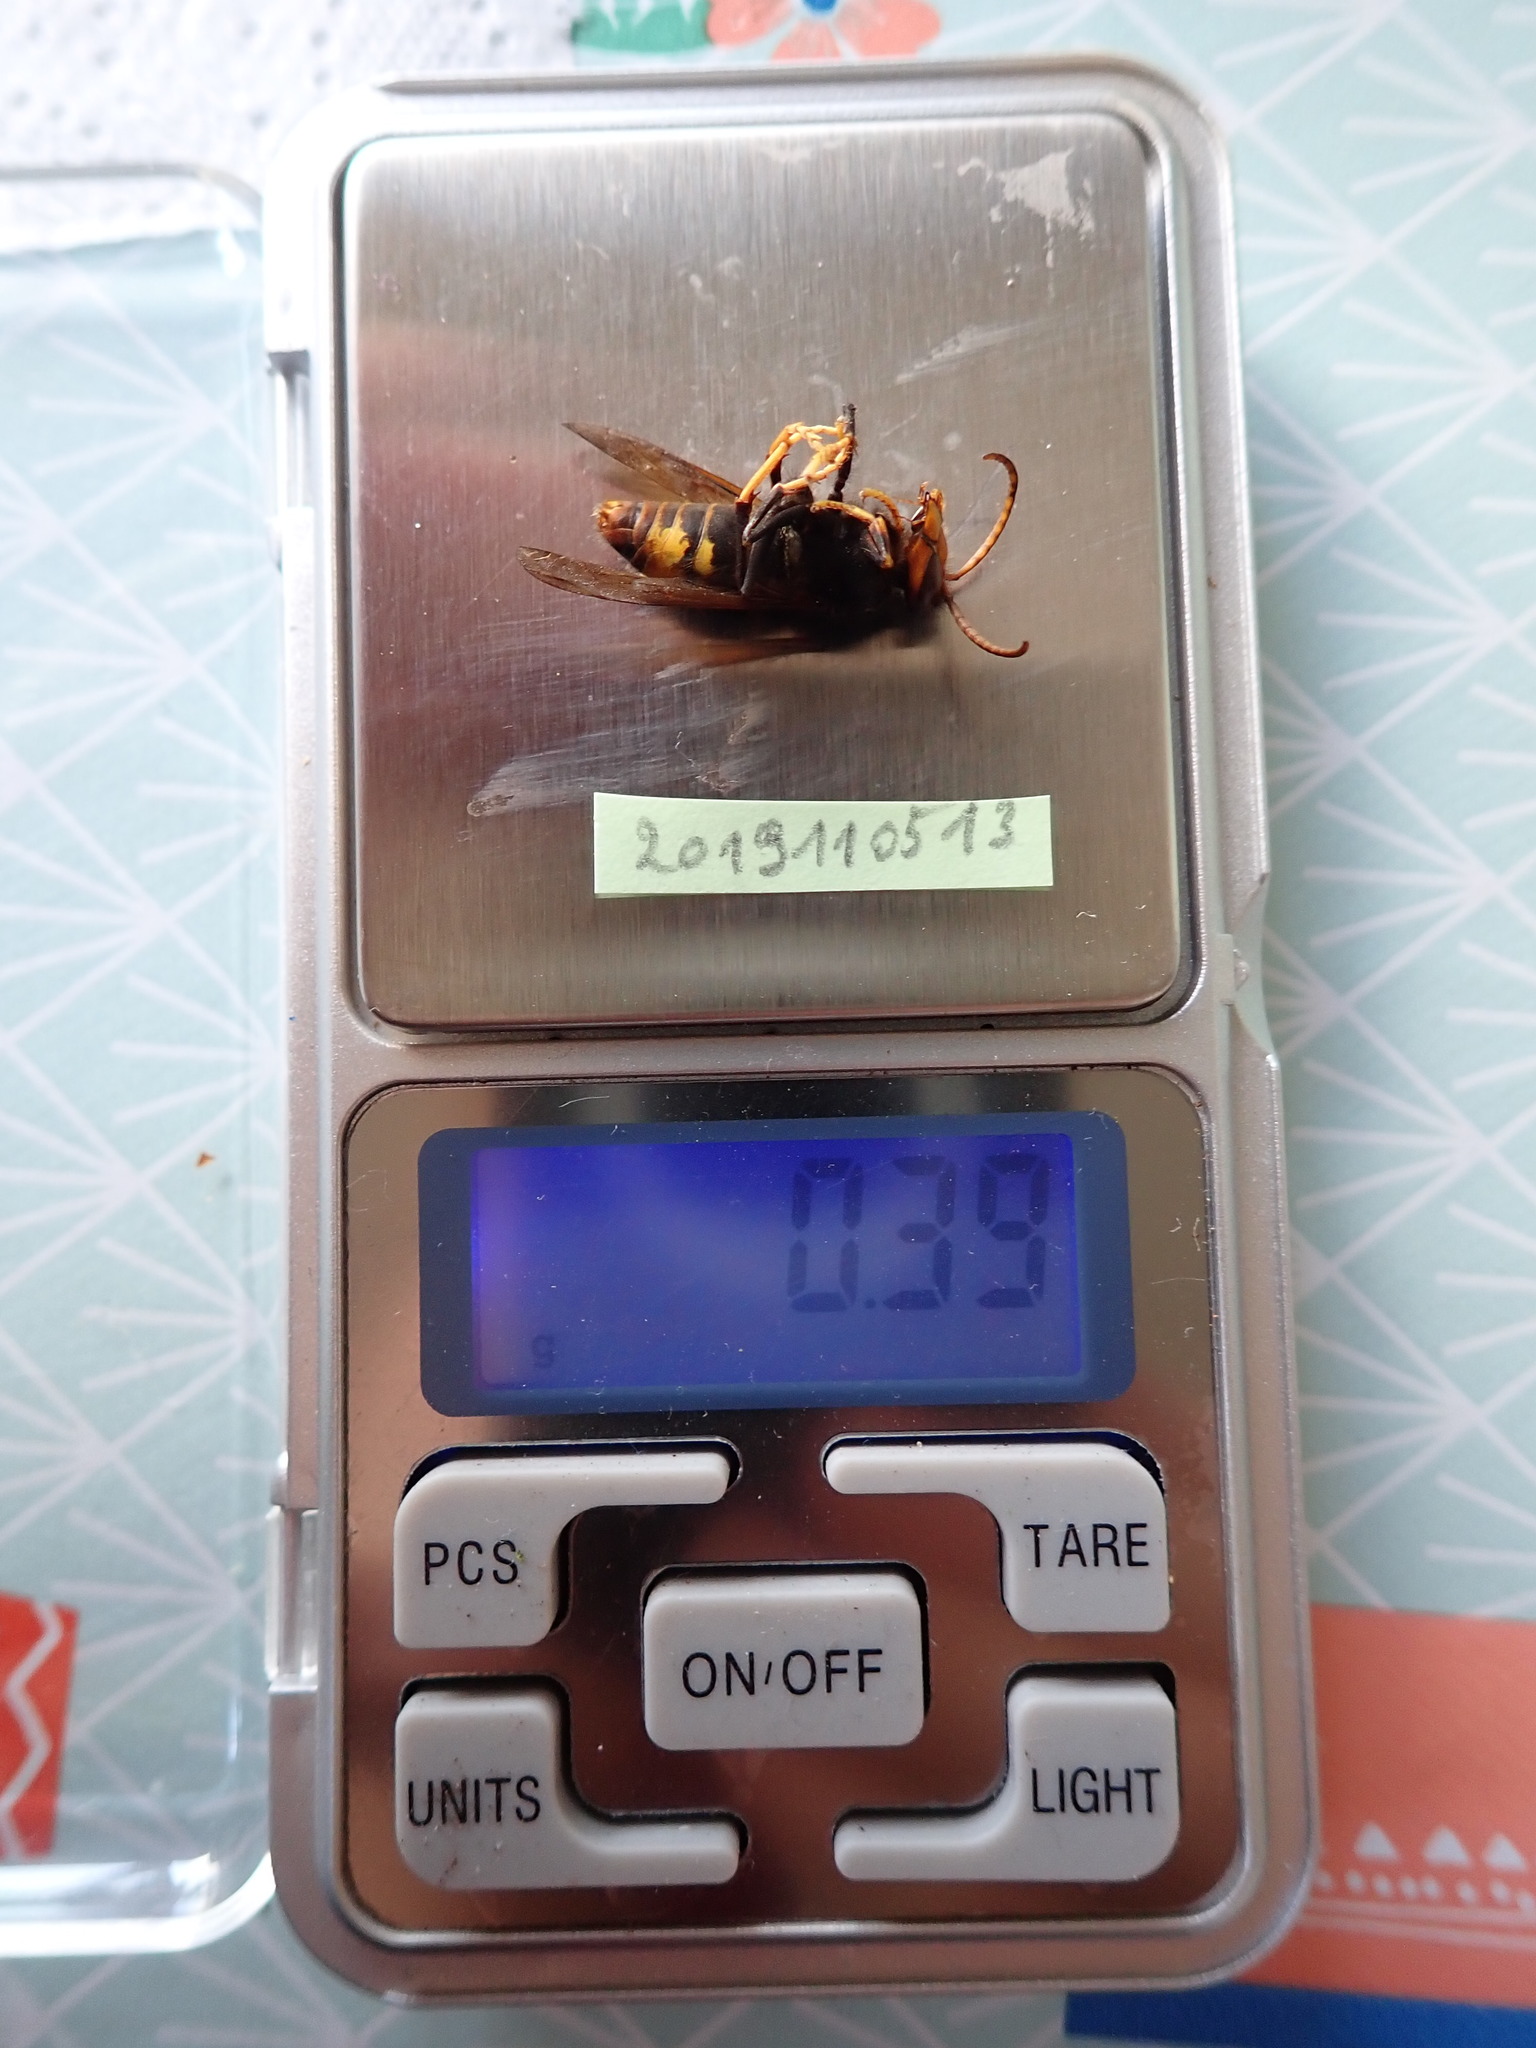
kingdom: Animalia
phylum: Arthropoda
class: Insecta
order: Hymenoptera
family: Vespidae
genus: Vespa
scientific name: Vespa velutina
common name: Asian hornet
